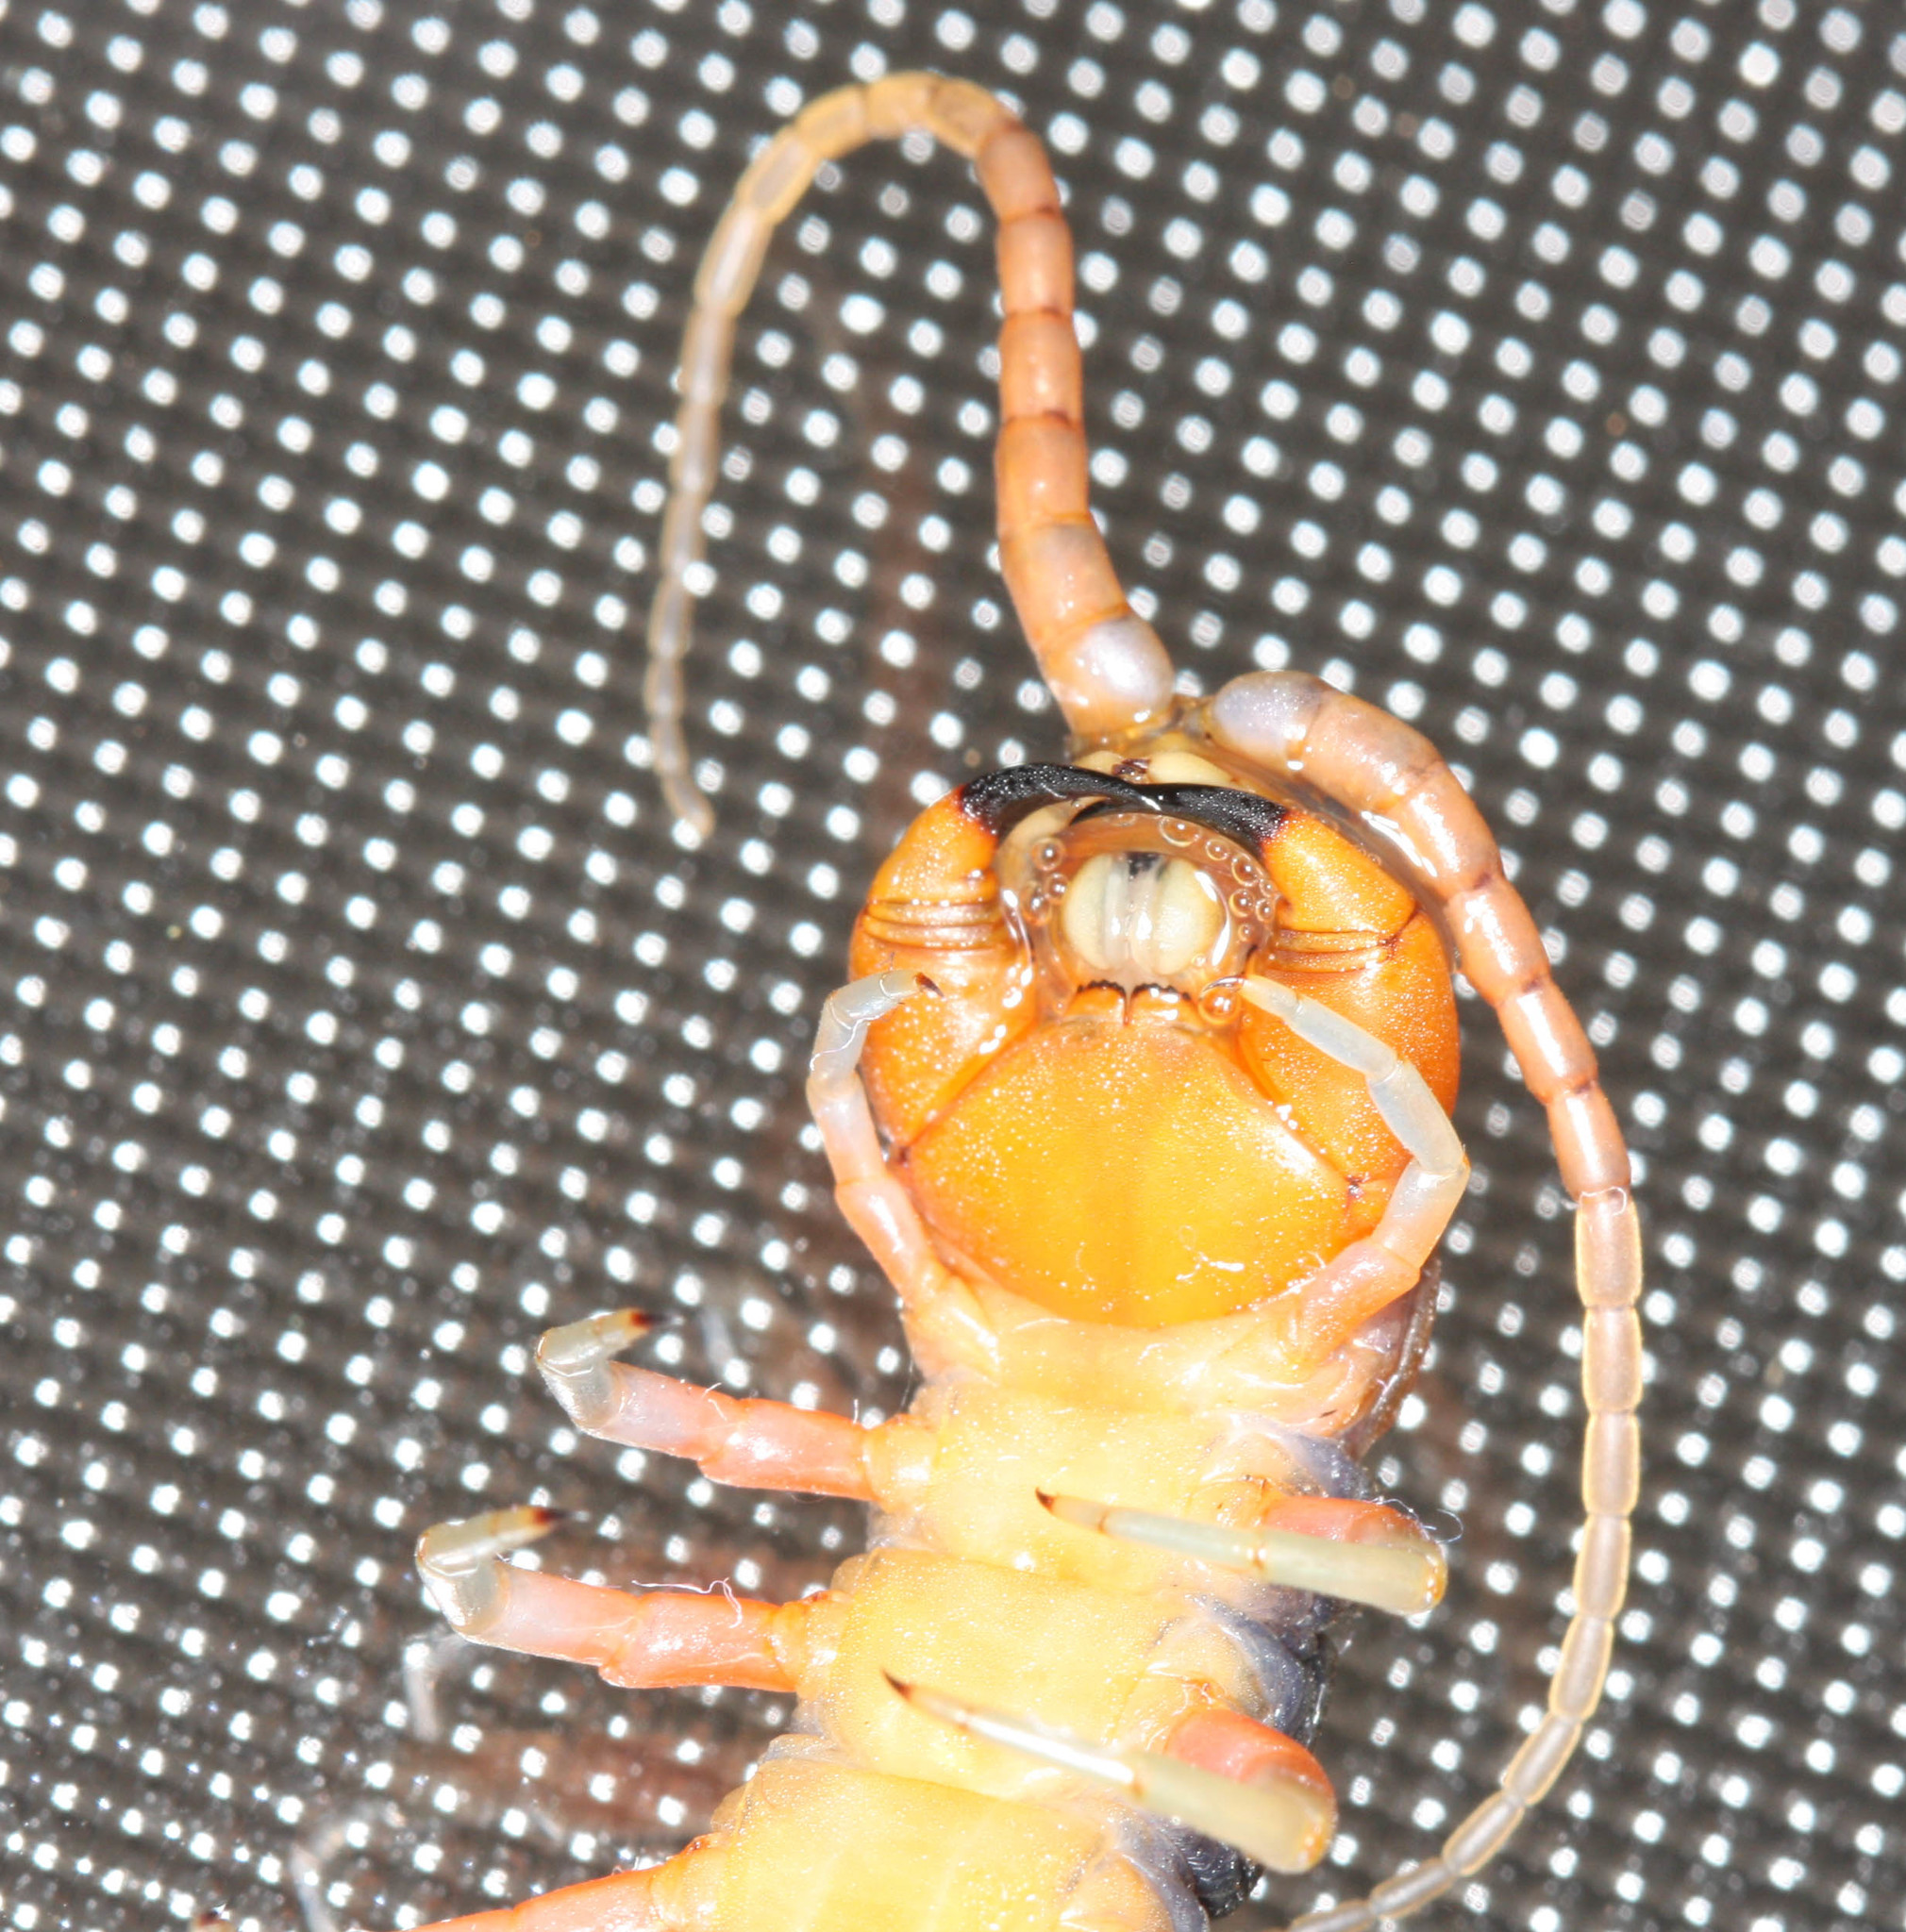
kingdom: Animalia
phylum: Arthropoda
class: Chilopoda
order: Scolopendromorpha
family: Scolopendridae
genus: Scolopendra
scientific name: Scolopendra subspinipes
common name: Centipede
